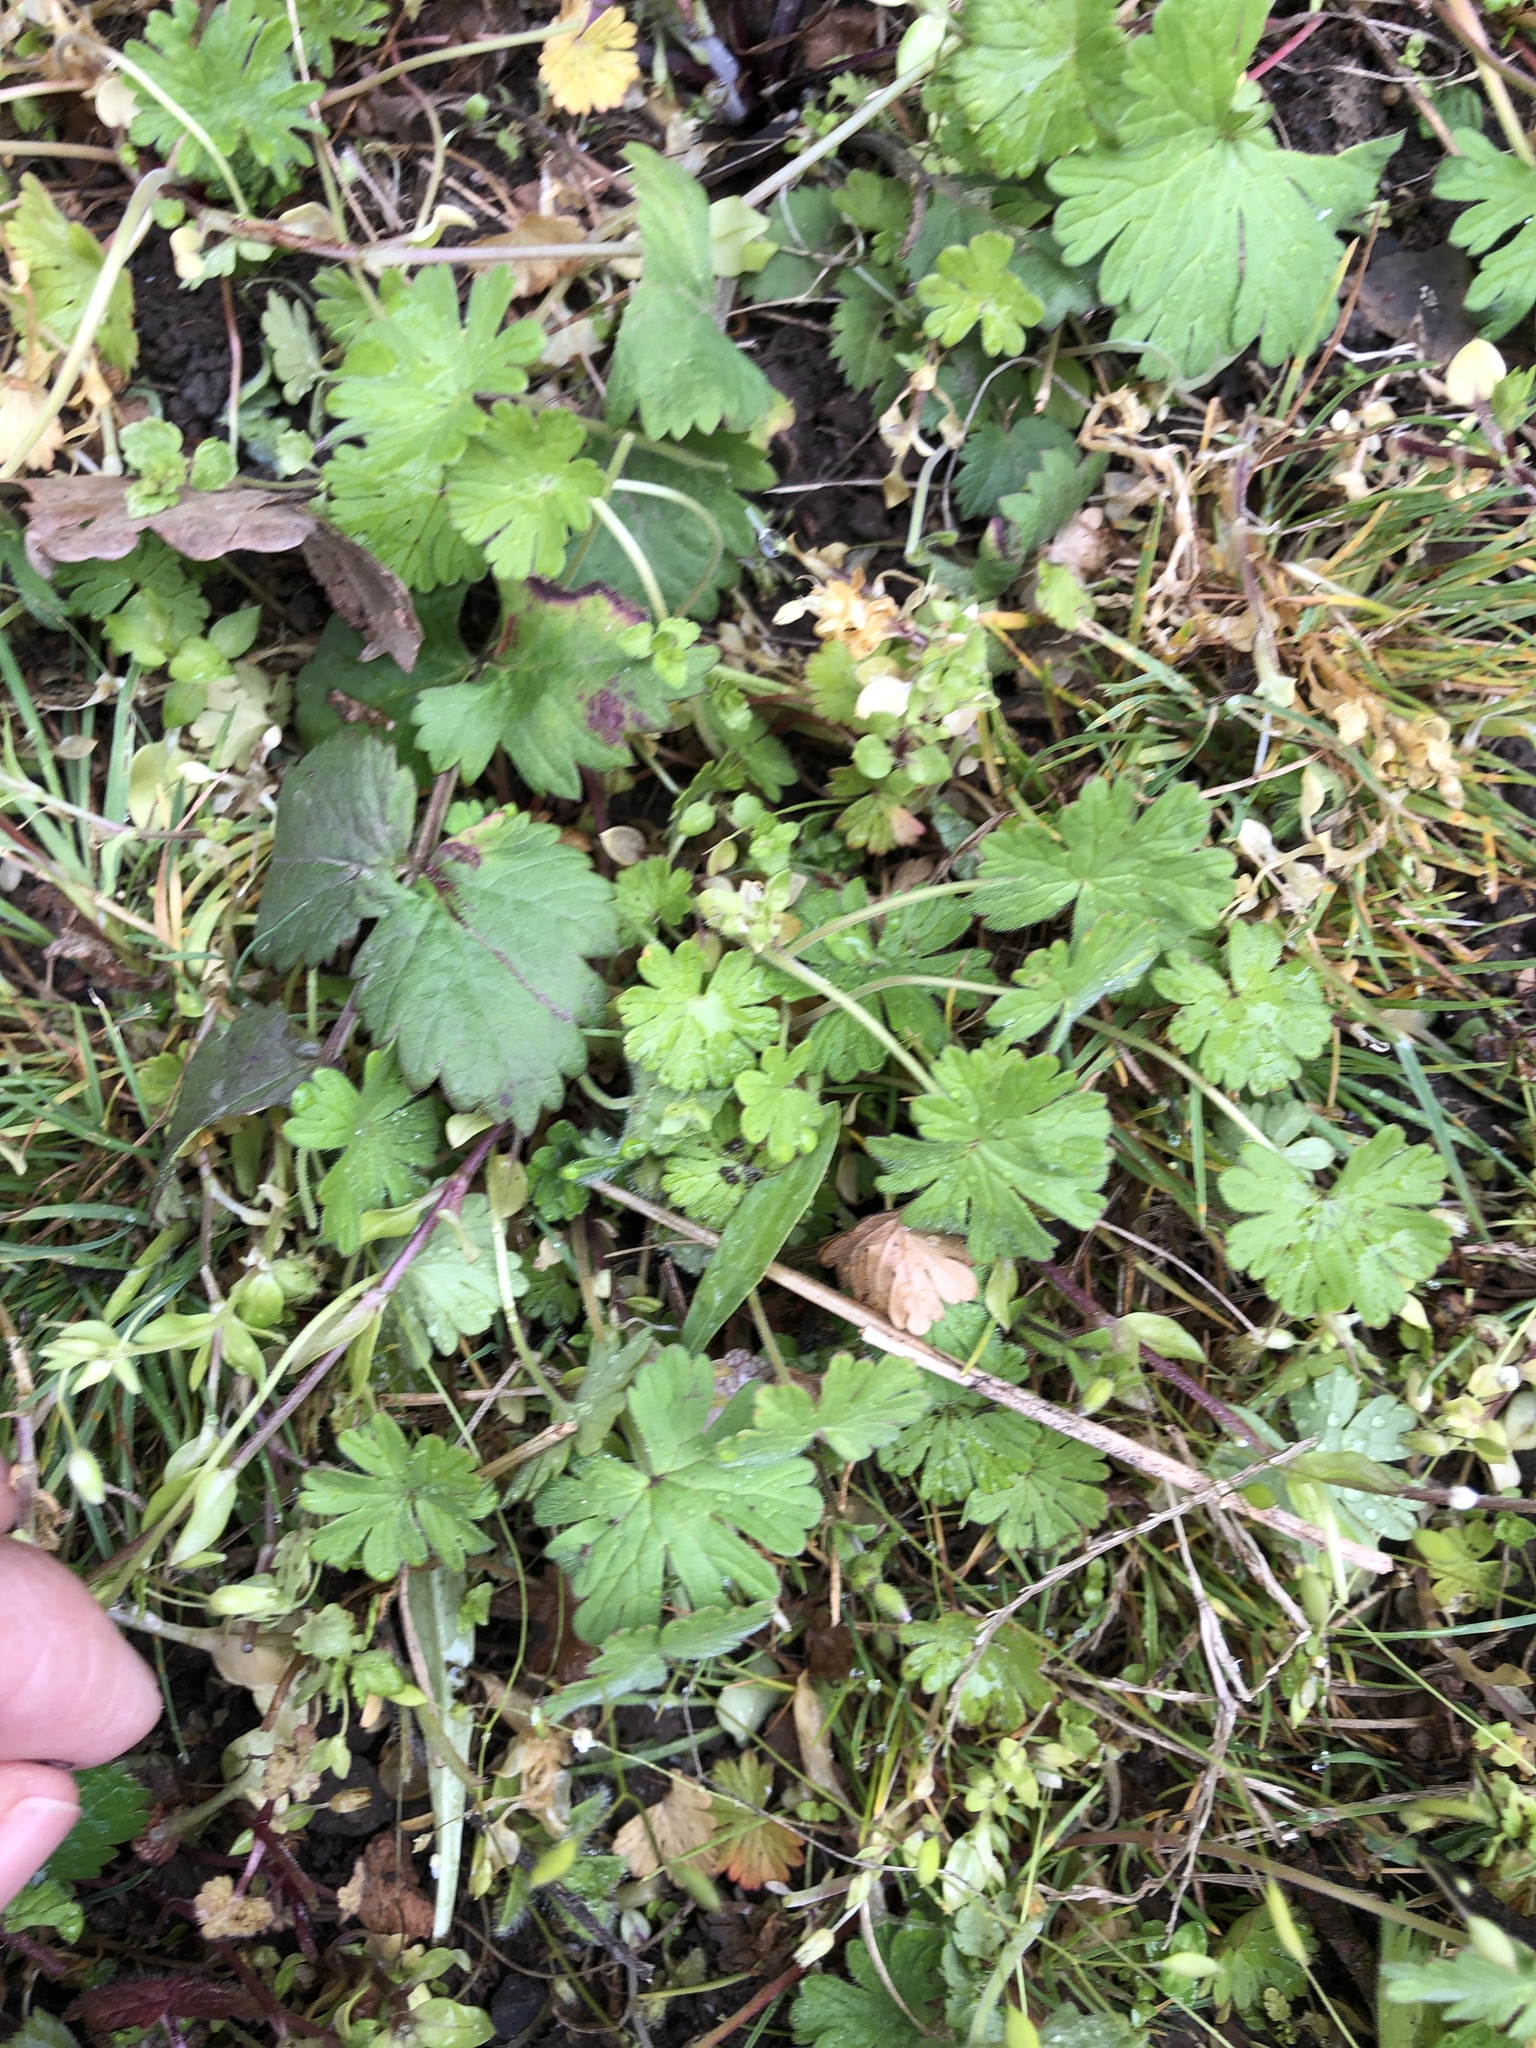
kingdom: Plantae
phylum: Tracheophyta
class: Magnoliopsida
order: Geraniales
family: Geraniaceae
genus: Geranium
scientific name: Geranium pusillum
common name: Small geranium
